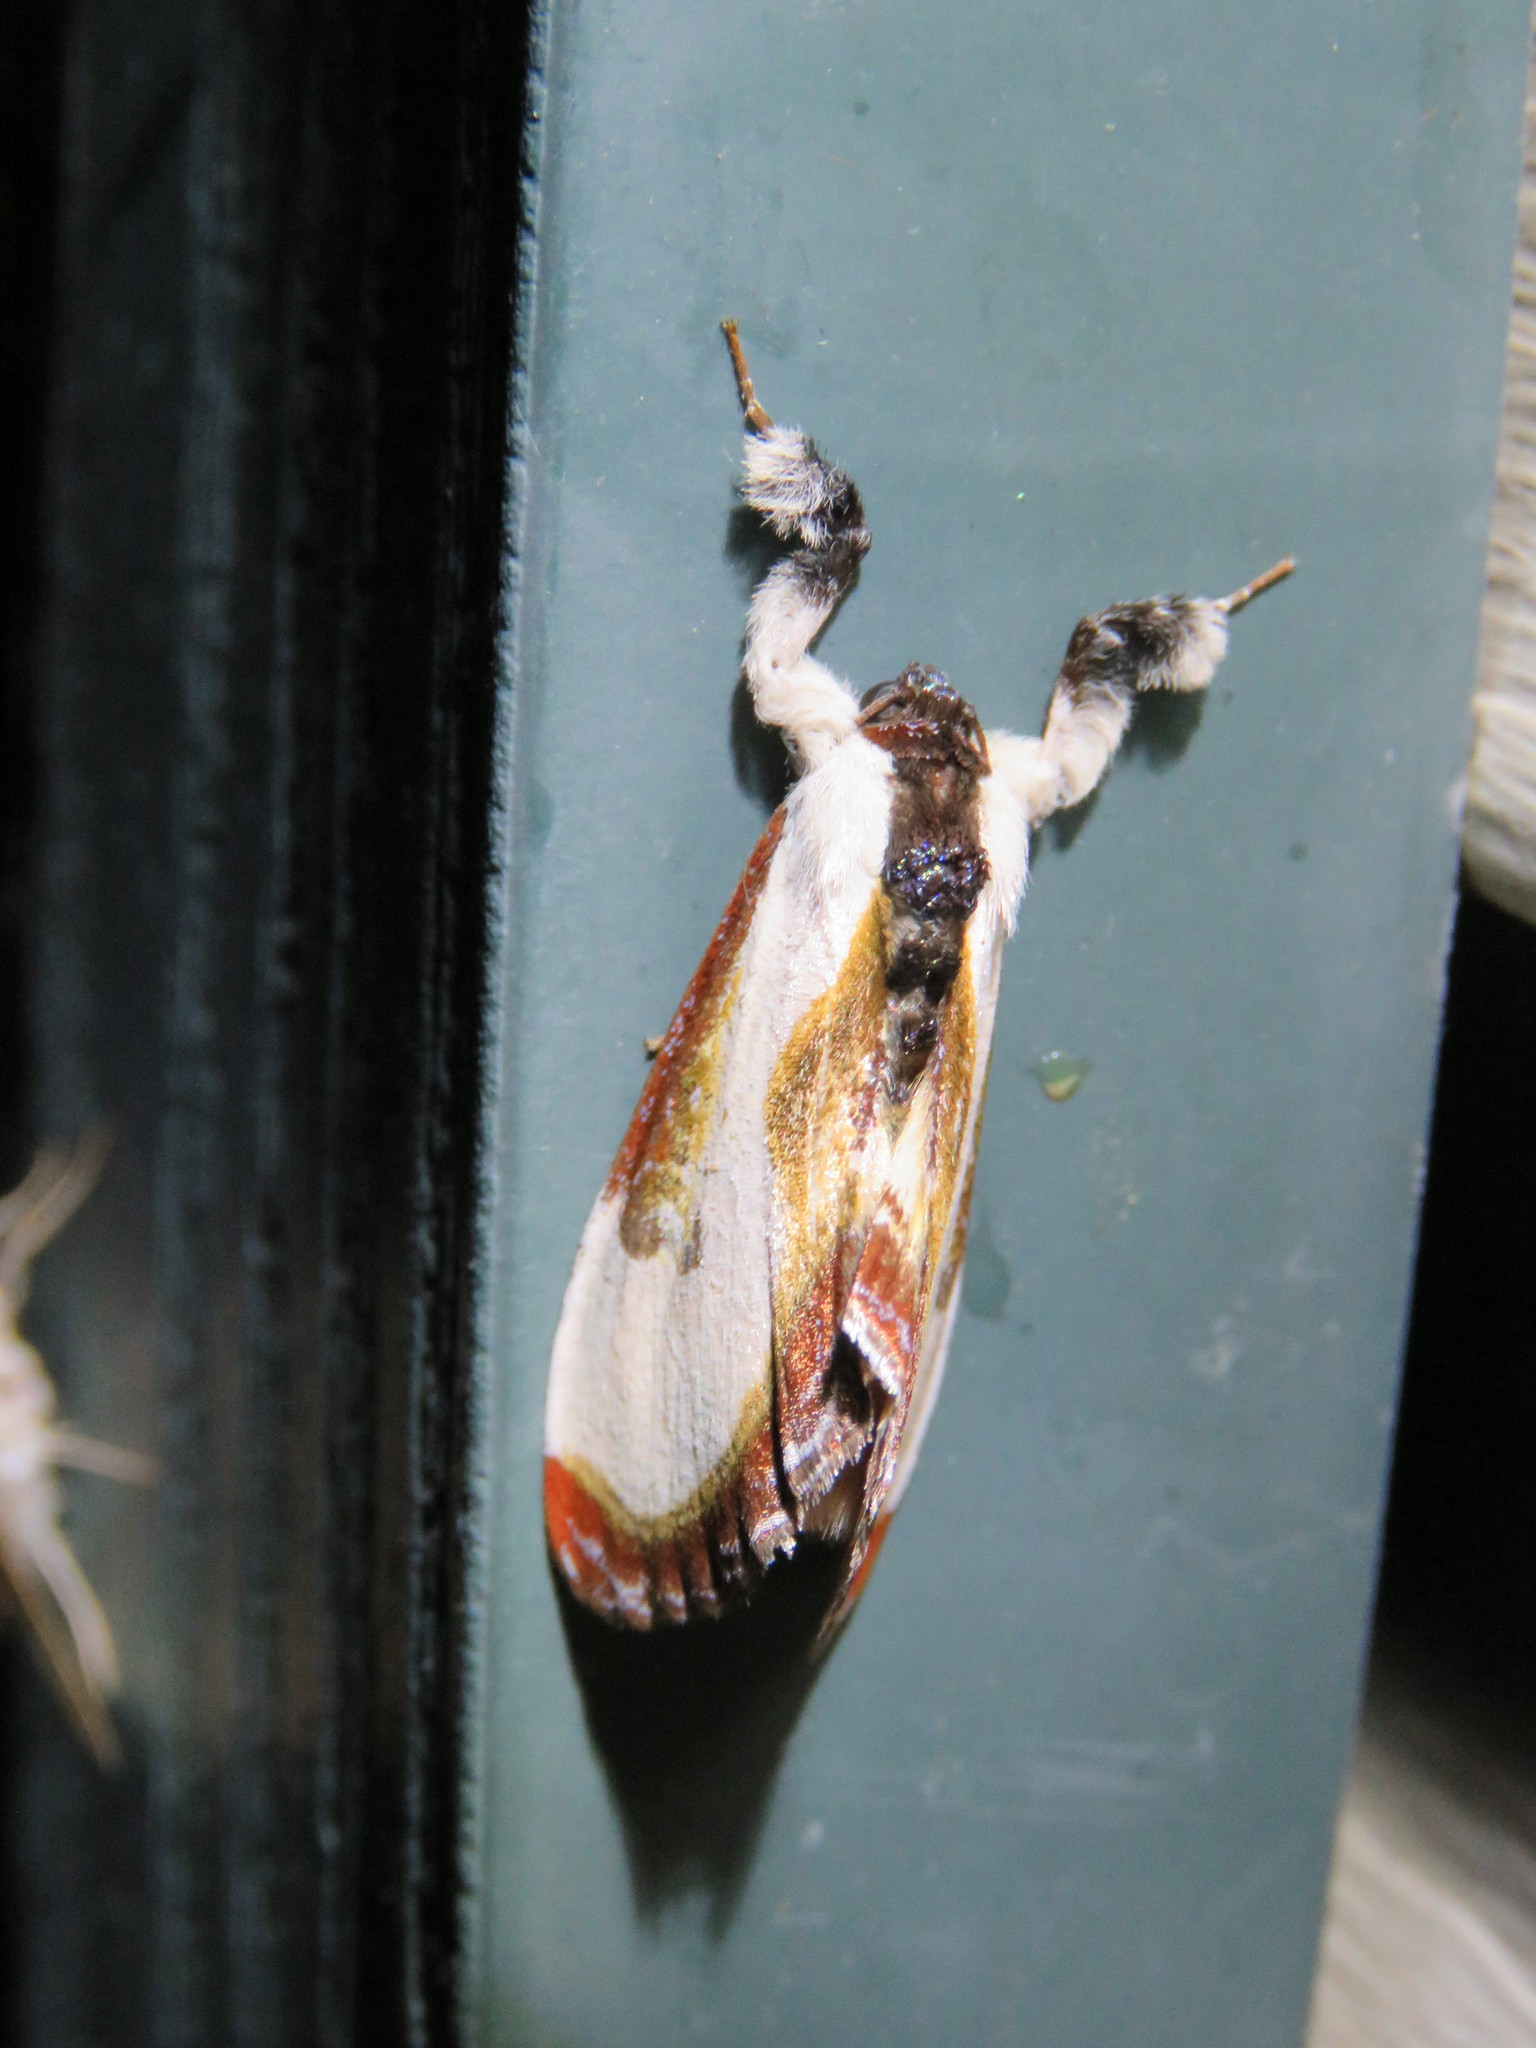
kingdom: Animalia
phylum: Arthropoda
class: Insecta
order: Lepidoptera
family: Noctuidae
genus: Eudryas
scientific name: Eudryas grata
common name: Beautiful wood-nymph
